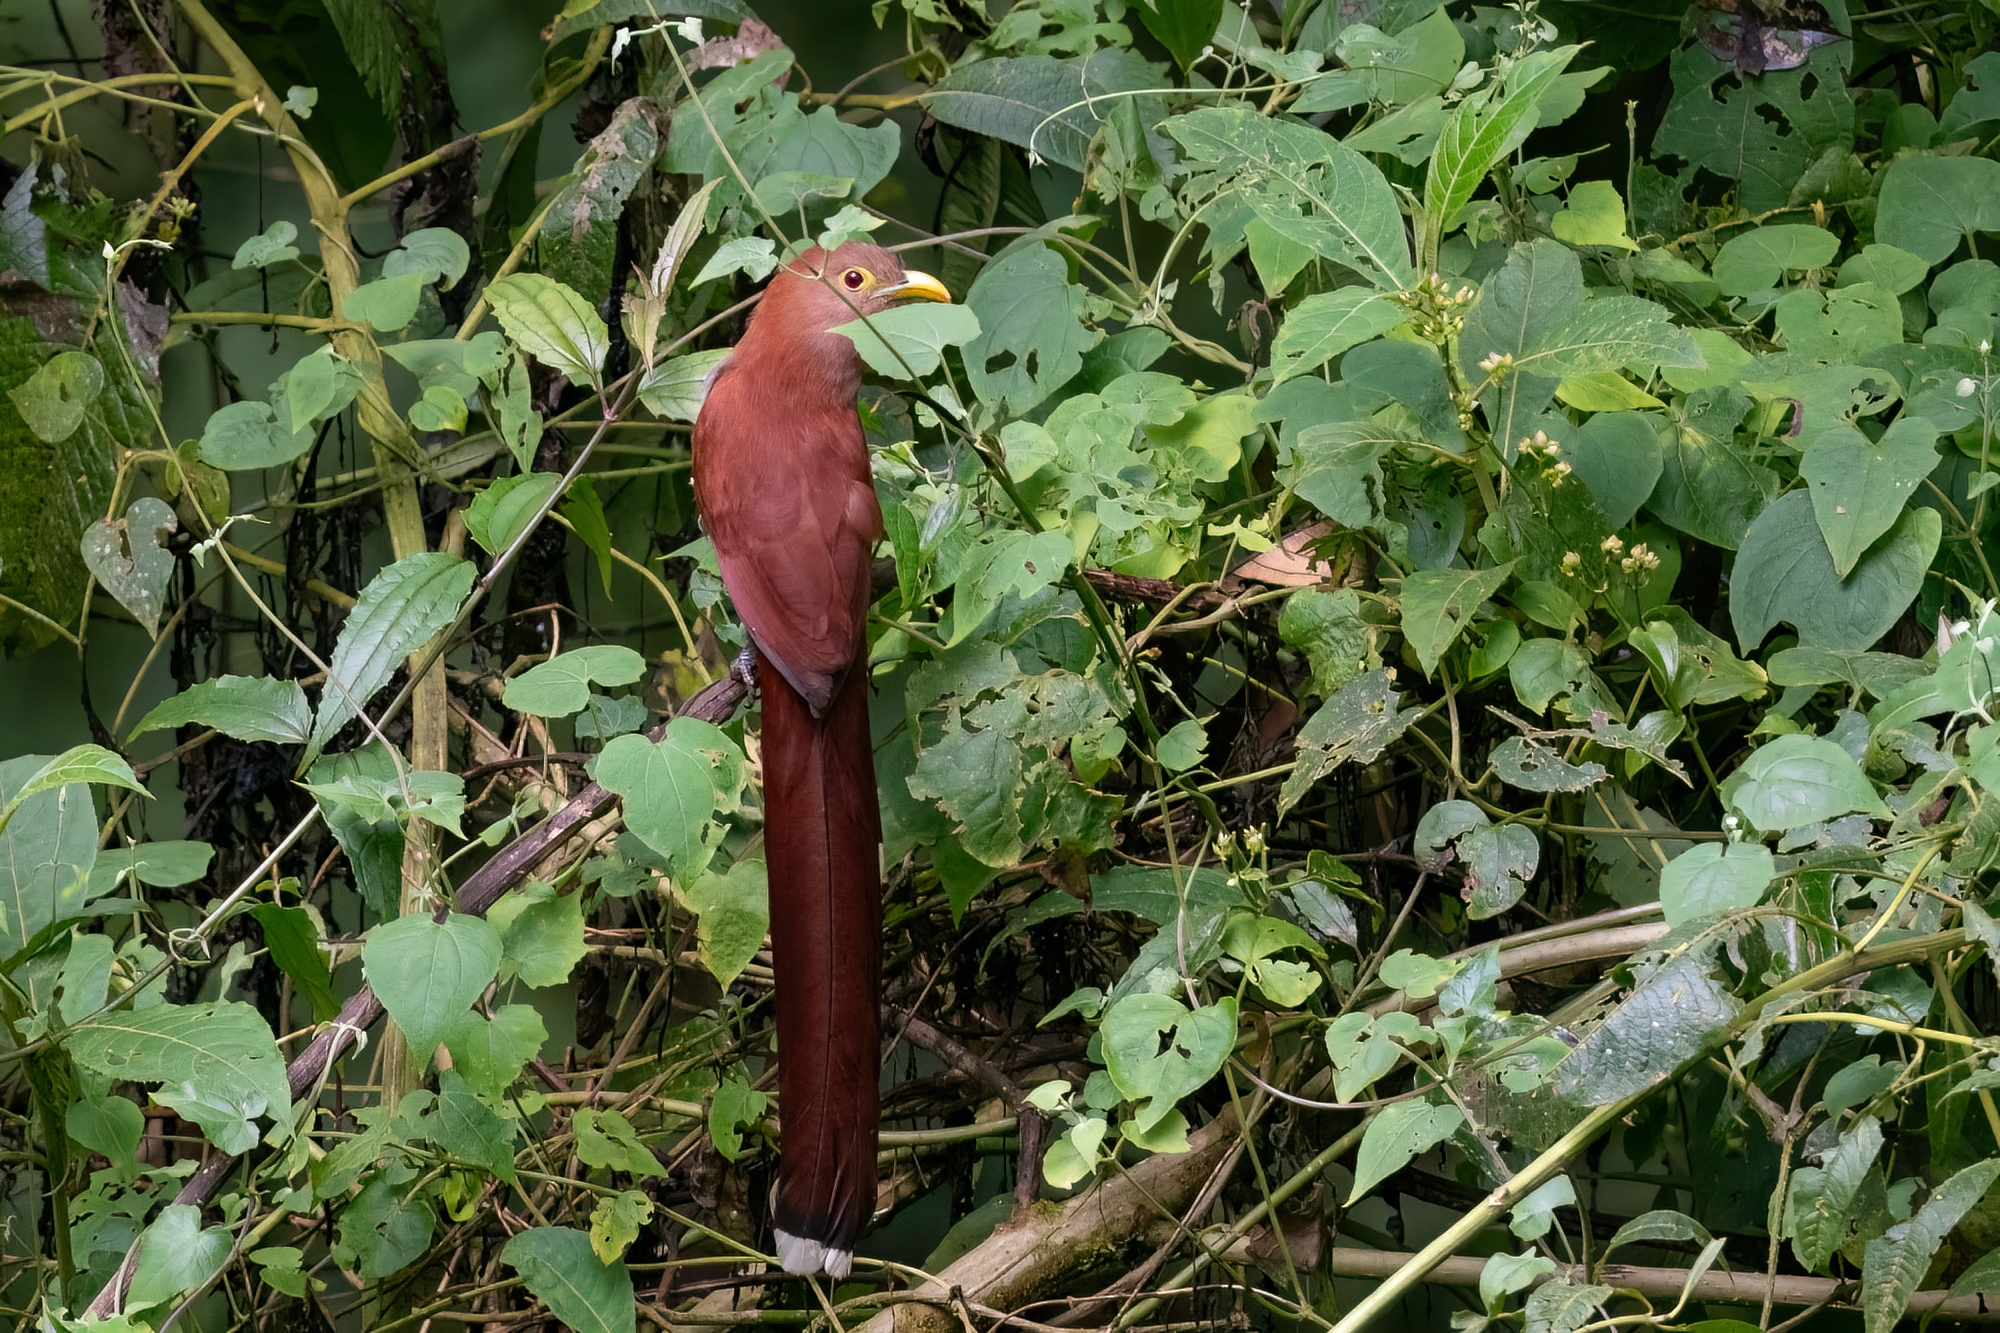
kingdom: Animalia
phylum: Chordata
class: Aves
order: Cuculiformes
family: Cuculidae
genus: Piaya
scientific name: Piaya cayana
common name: Squirrel cuckoo
